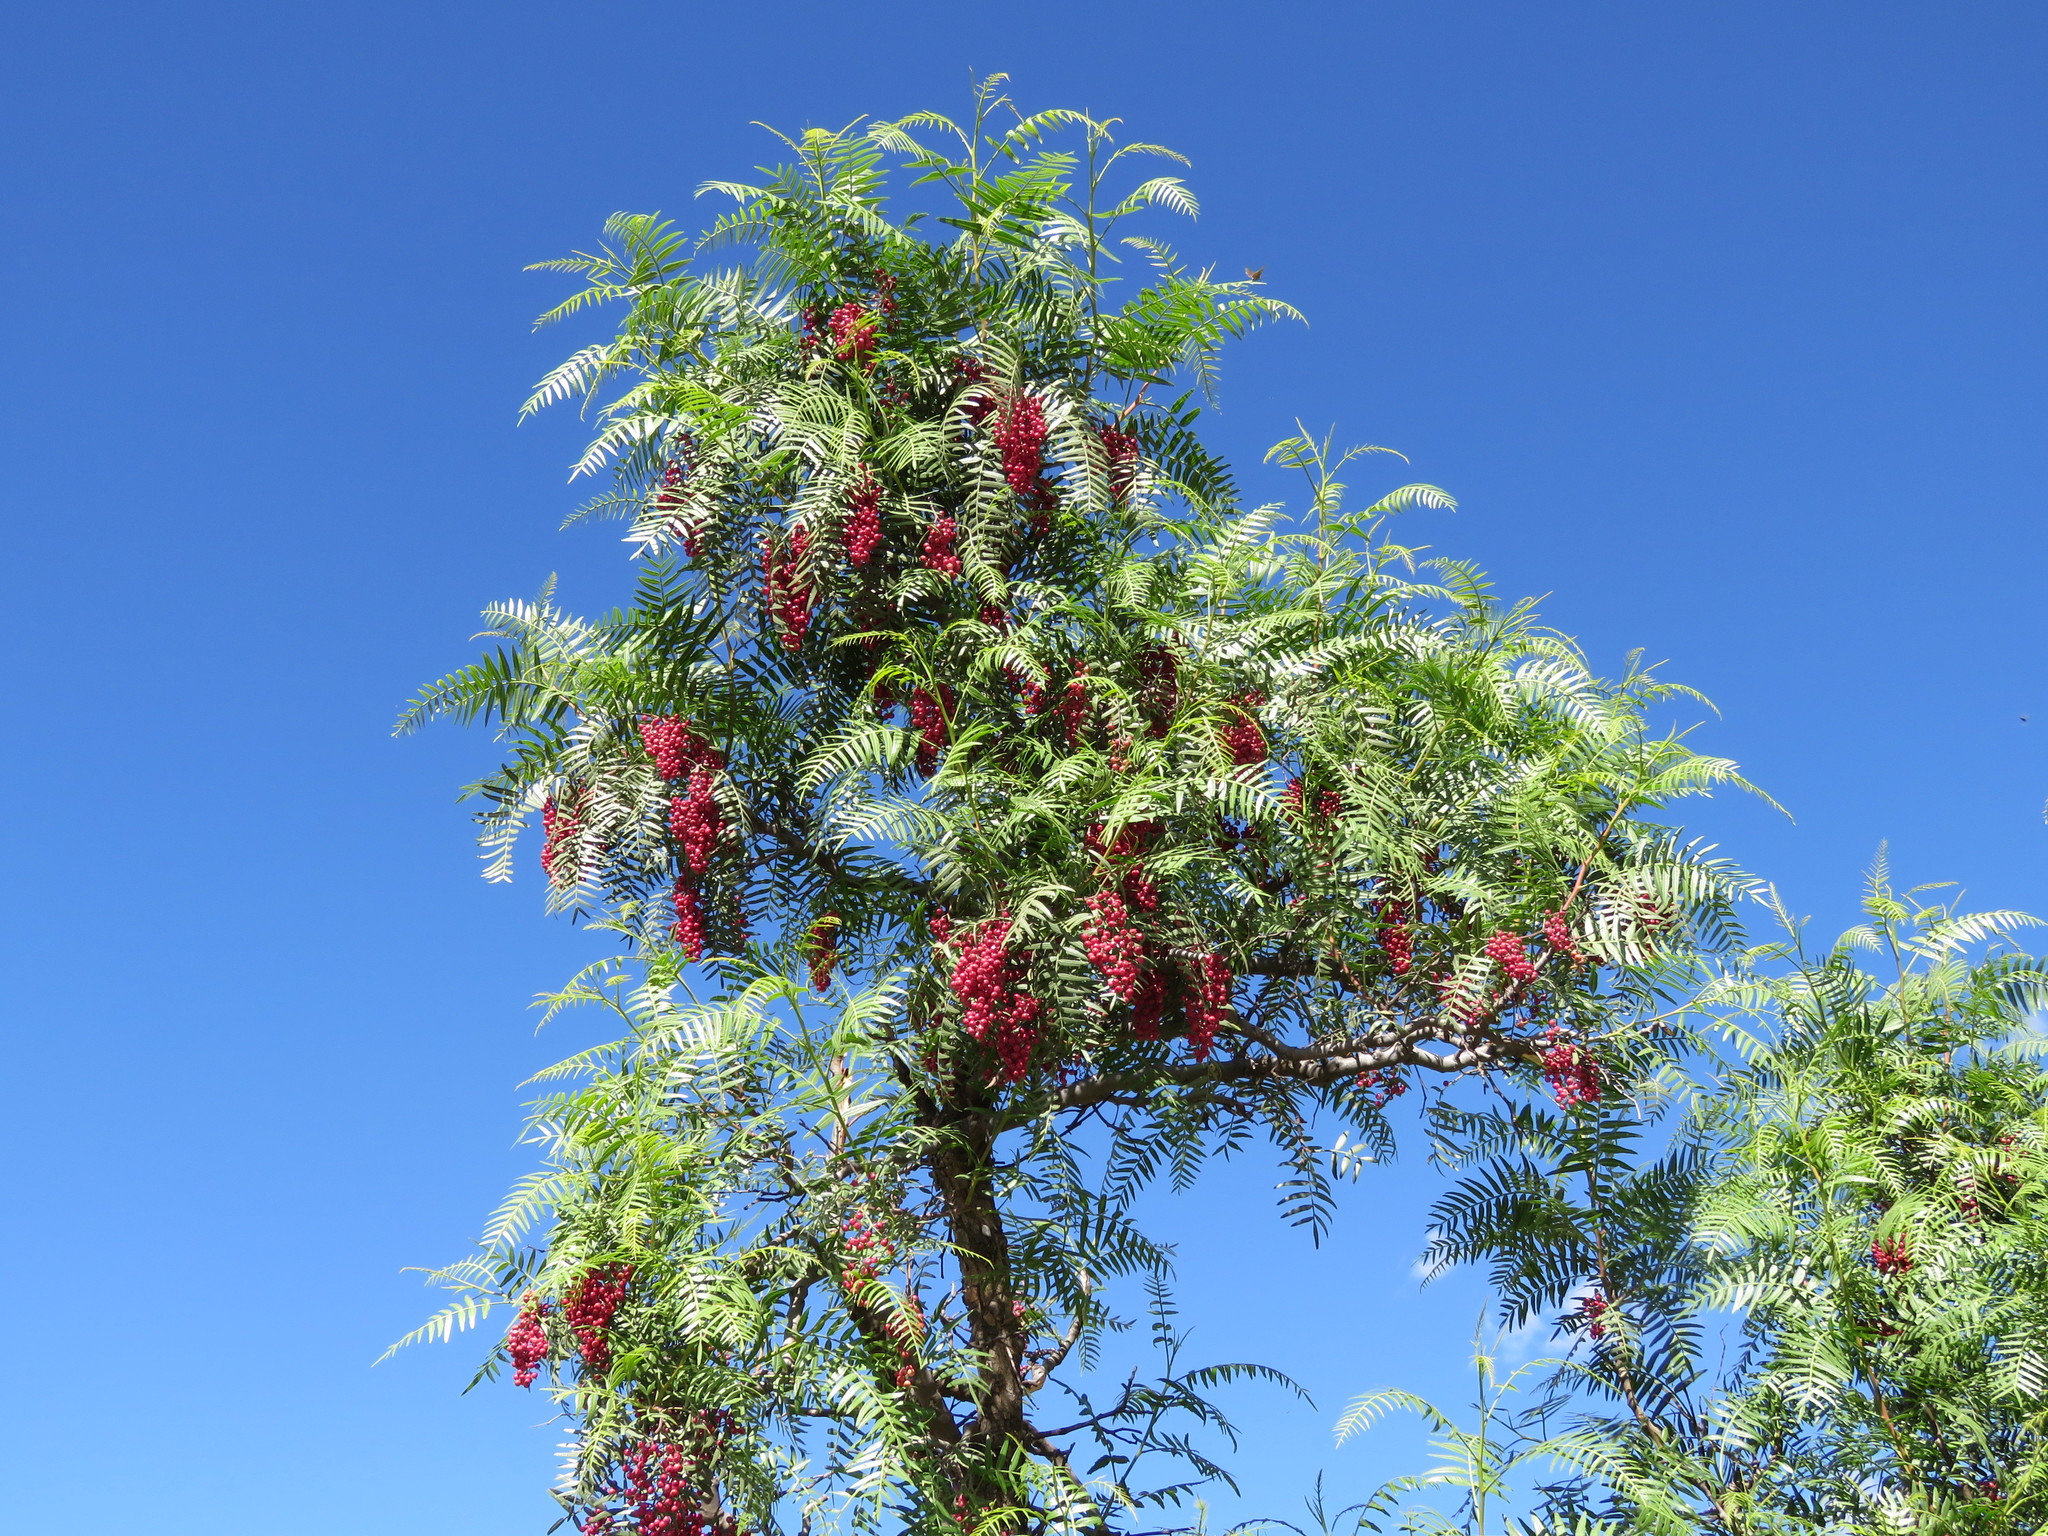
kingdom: Plantae
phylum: Tracheophyta
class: Magnoliopsida
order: Sapindales
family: Anacardiaceae
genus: Schinus
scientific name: Schinus molle
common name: Peruvian peppertree
